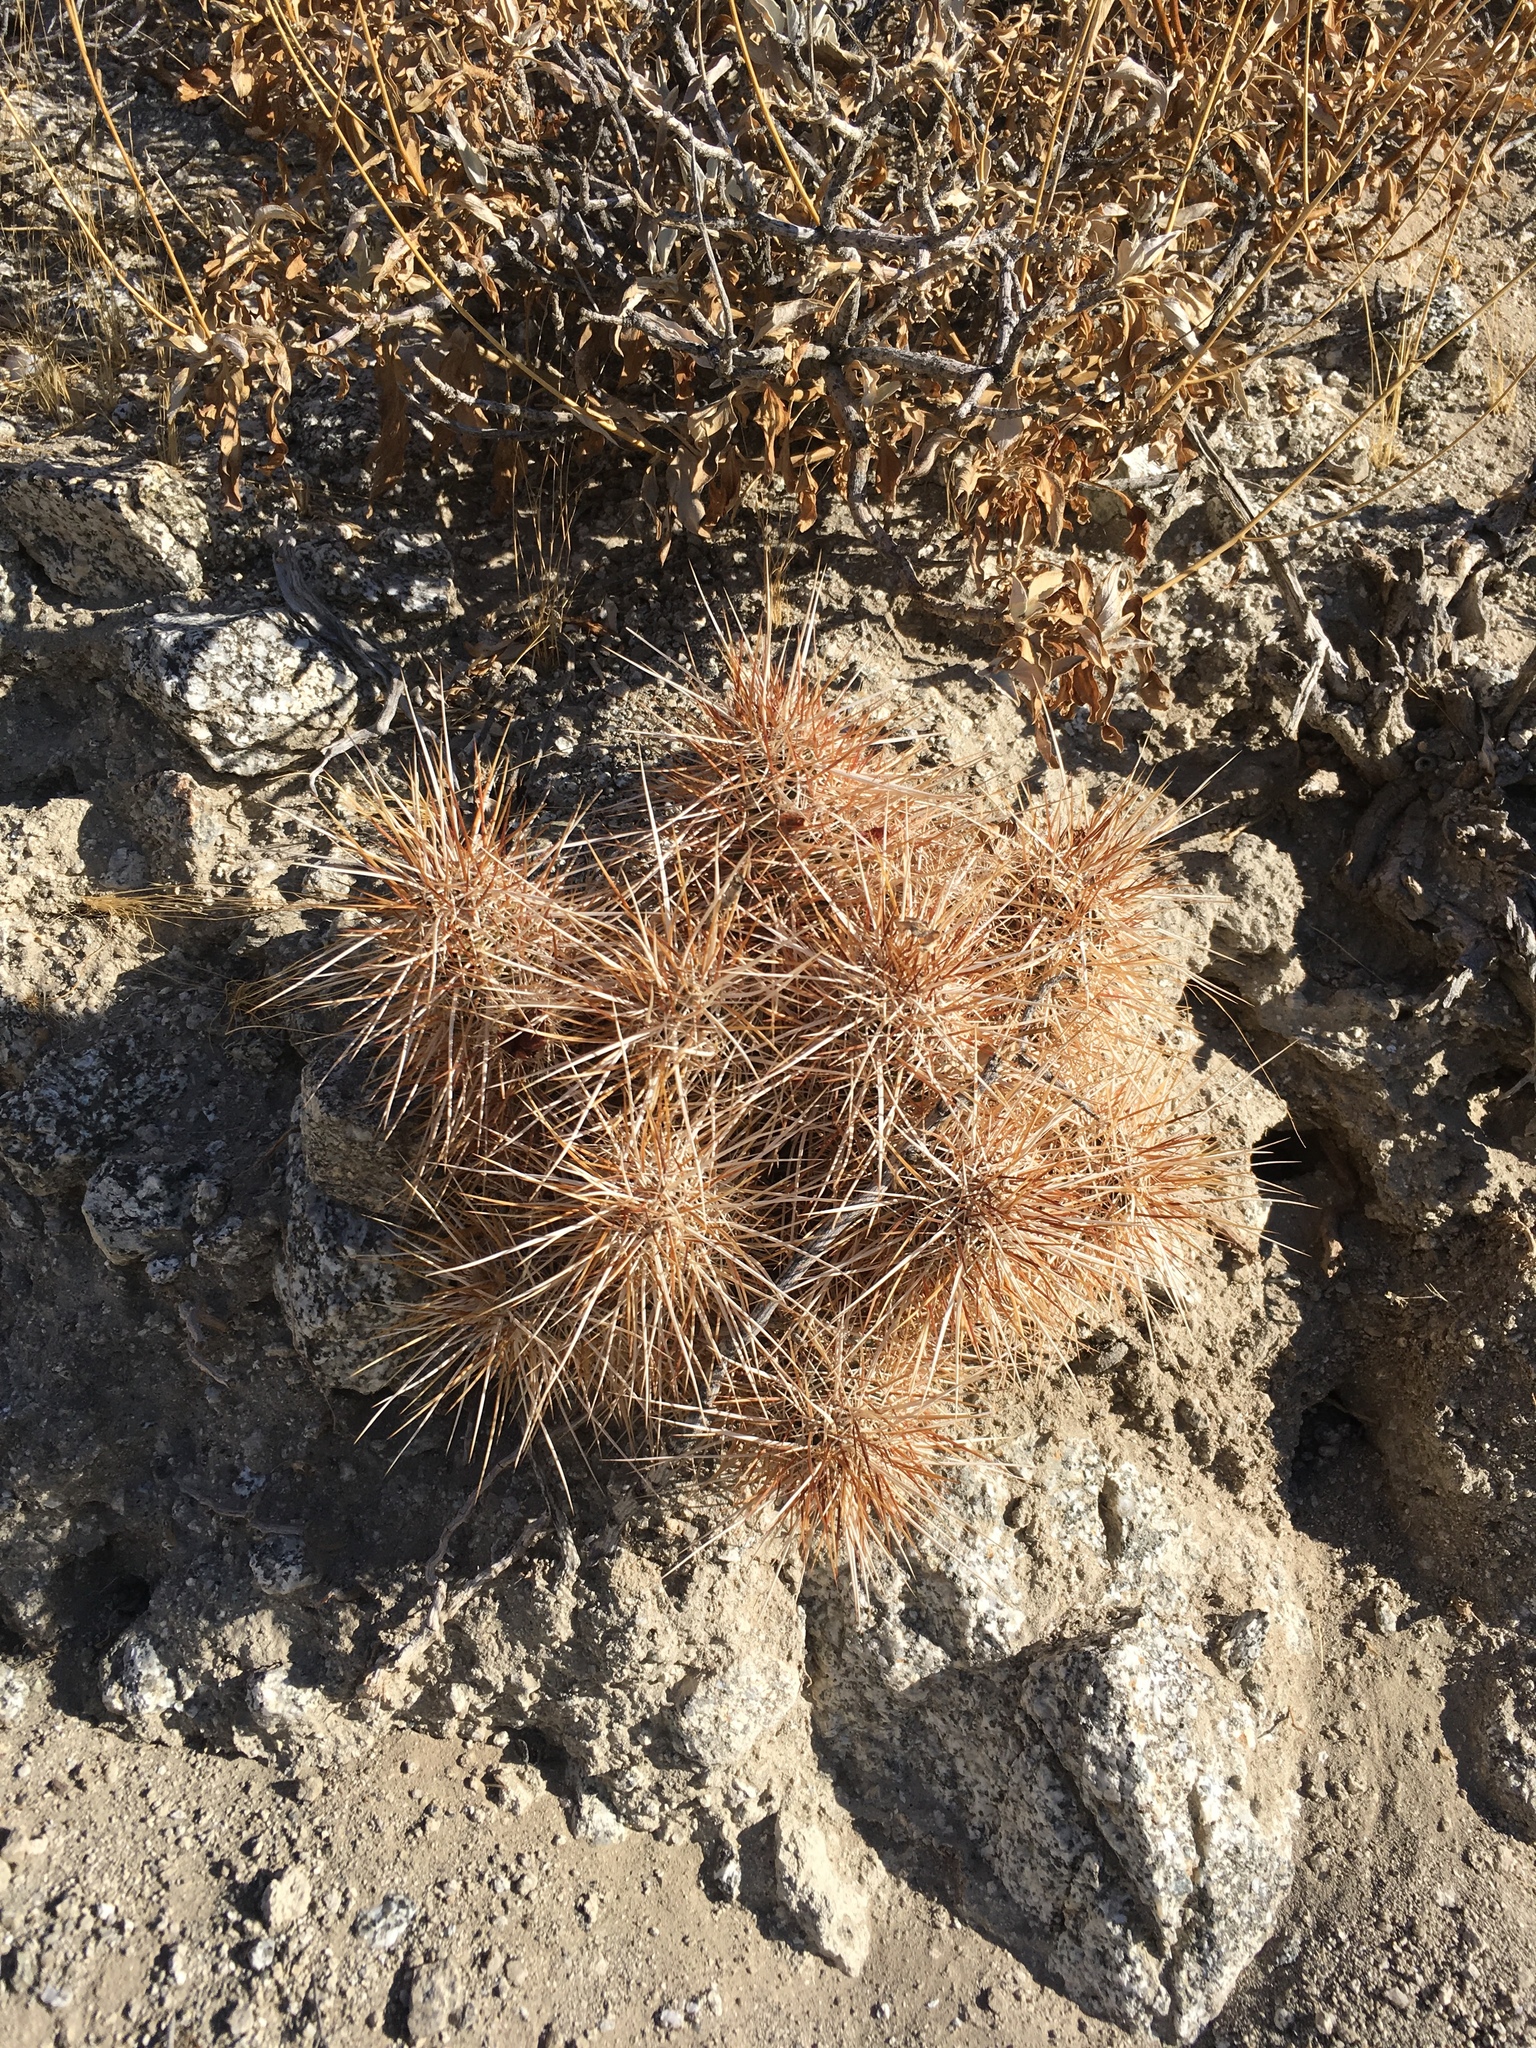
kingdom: Plantae
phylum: Tracheophyta
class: Magnoliopsida
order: Caryophyllales
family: Cactaceae
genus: Echinocereus
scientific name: Echinocereus engelmannii
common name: Engelmann's hedgehog cactus
